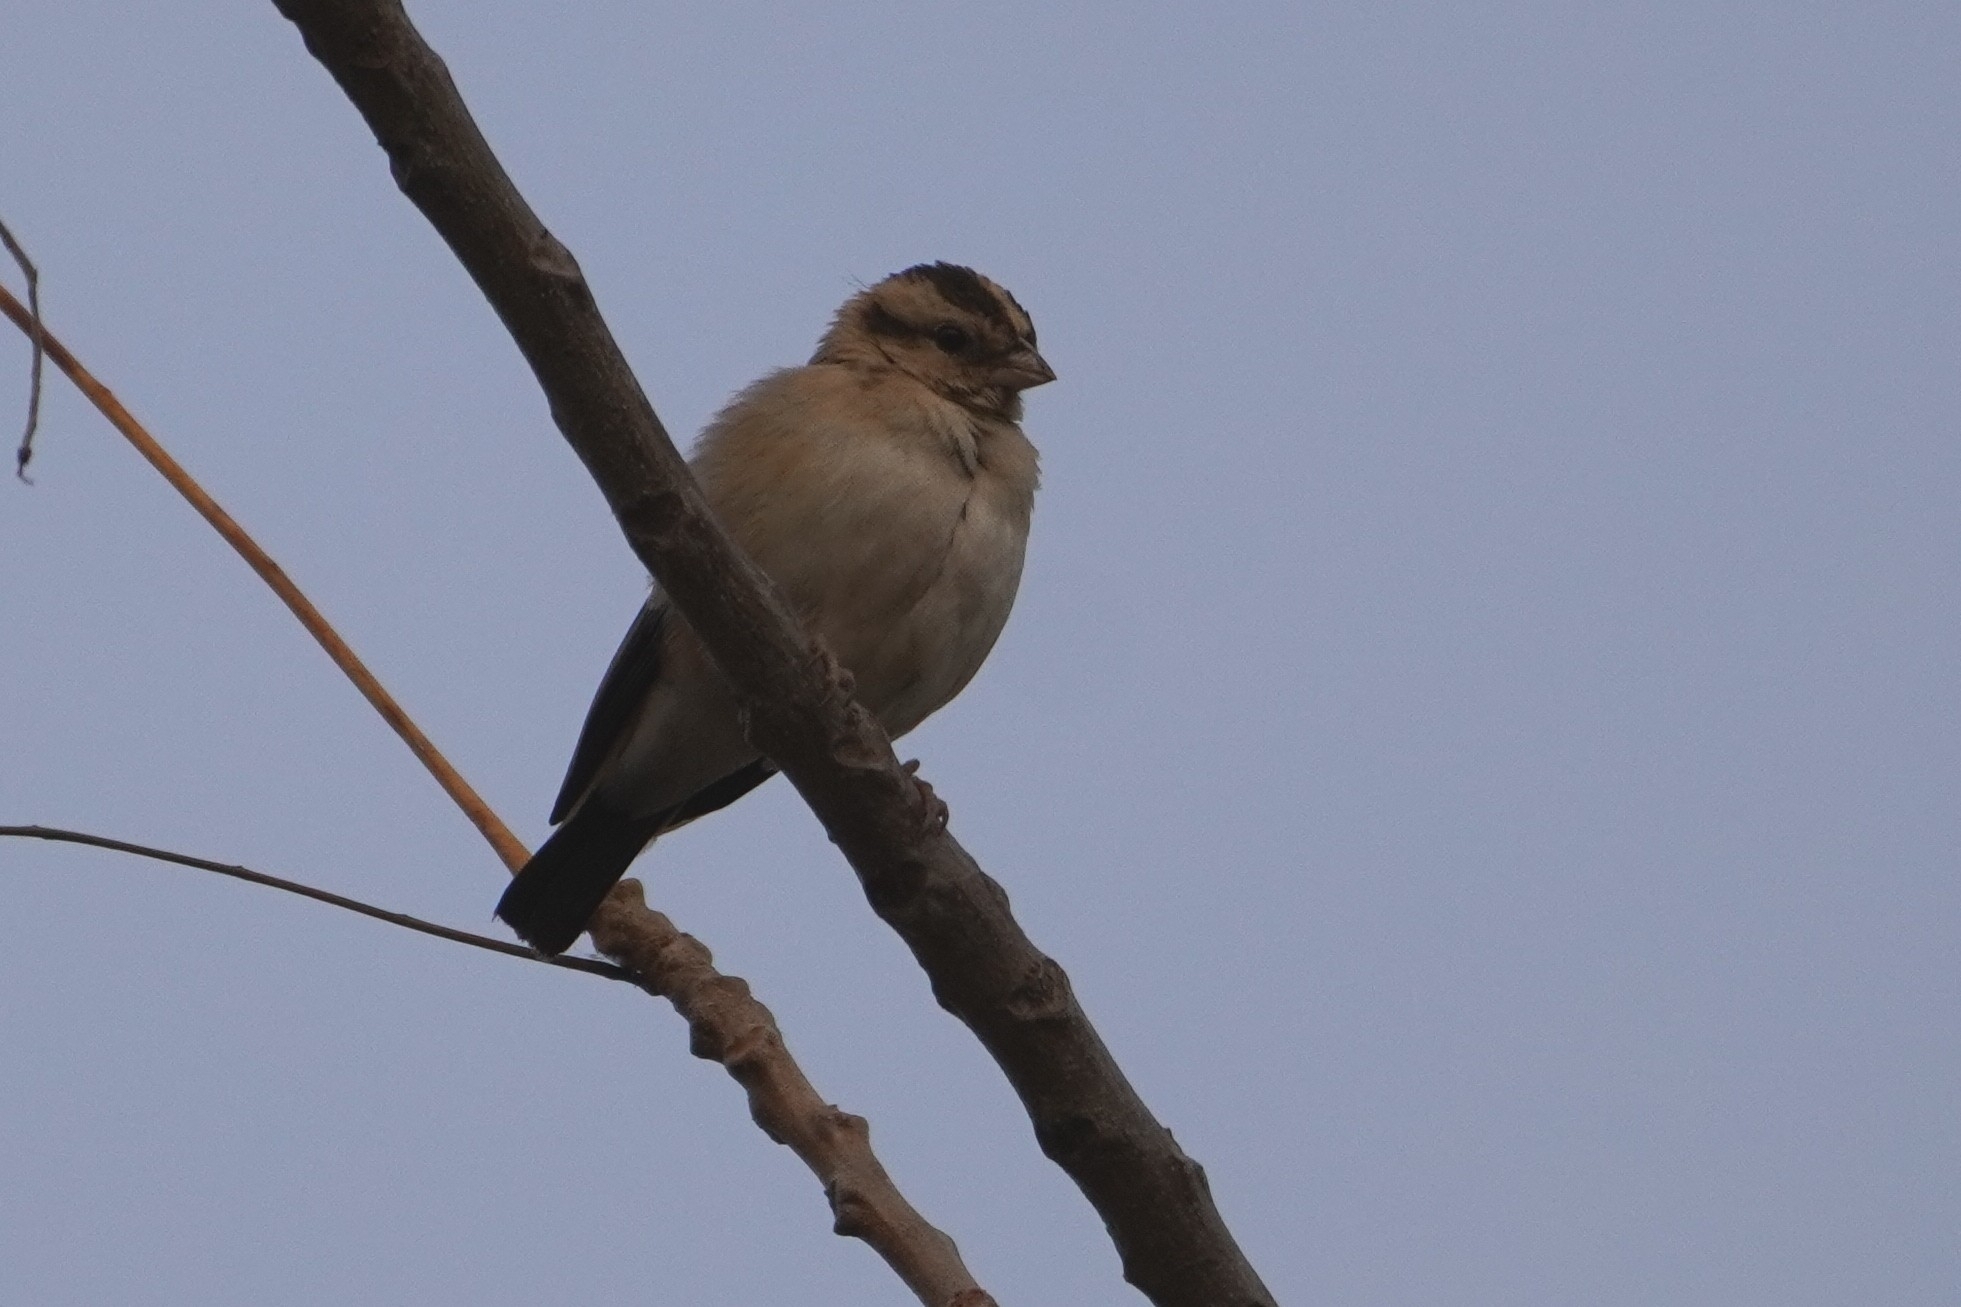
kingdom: Animalia
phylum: Chordata
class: Aves
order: Passeriformes
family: Viduidae
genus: Vidua
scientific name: Vidua chalybeata
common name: Village indigobird
